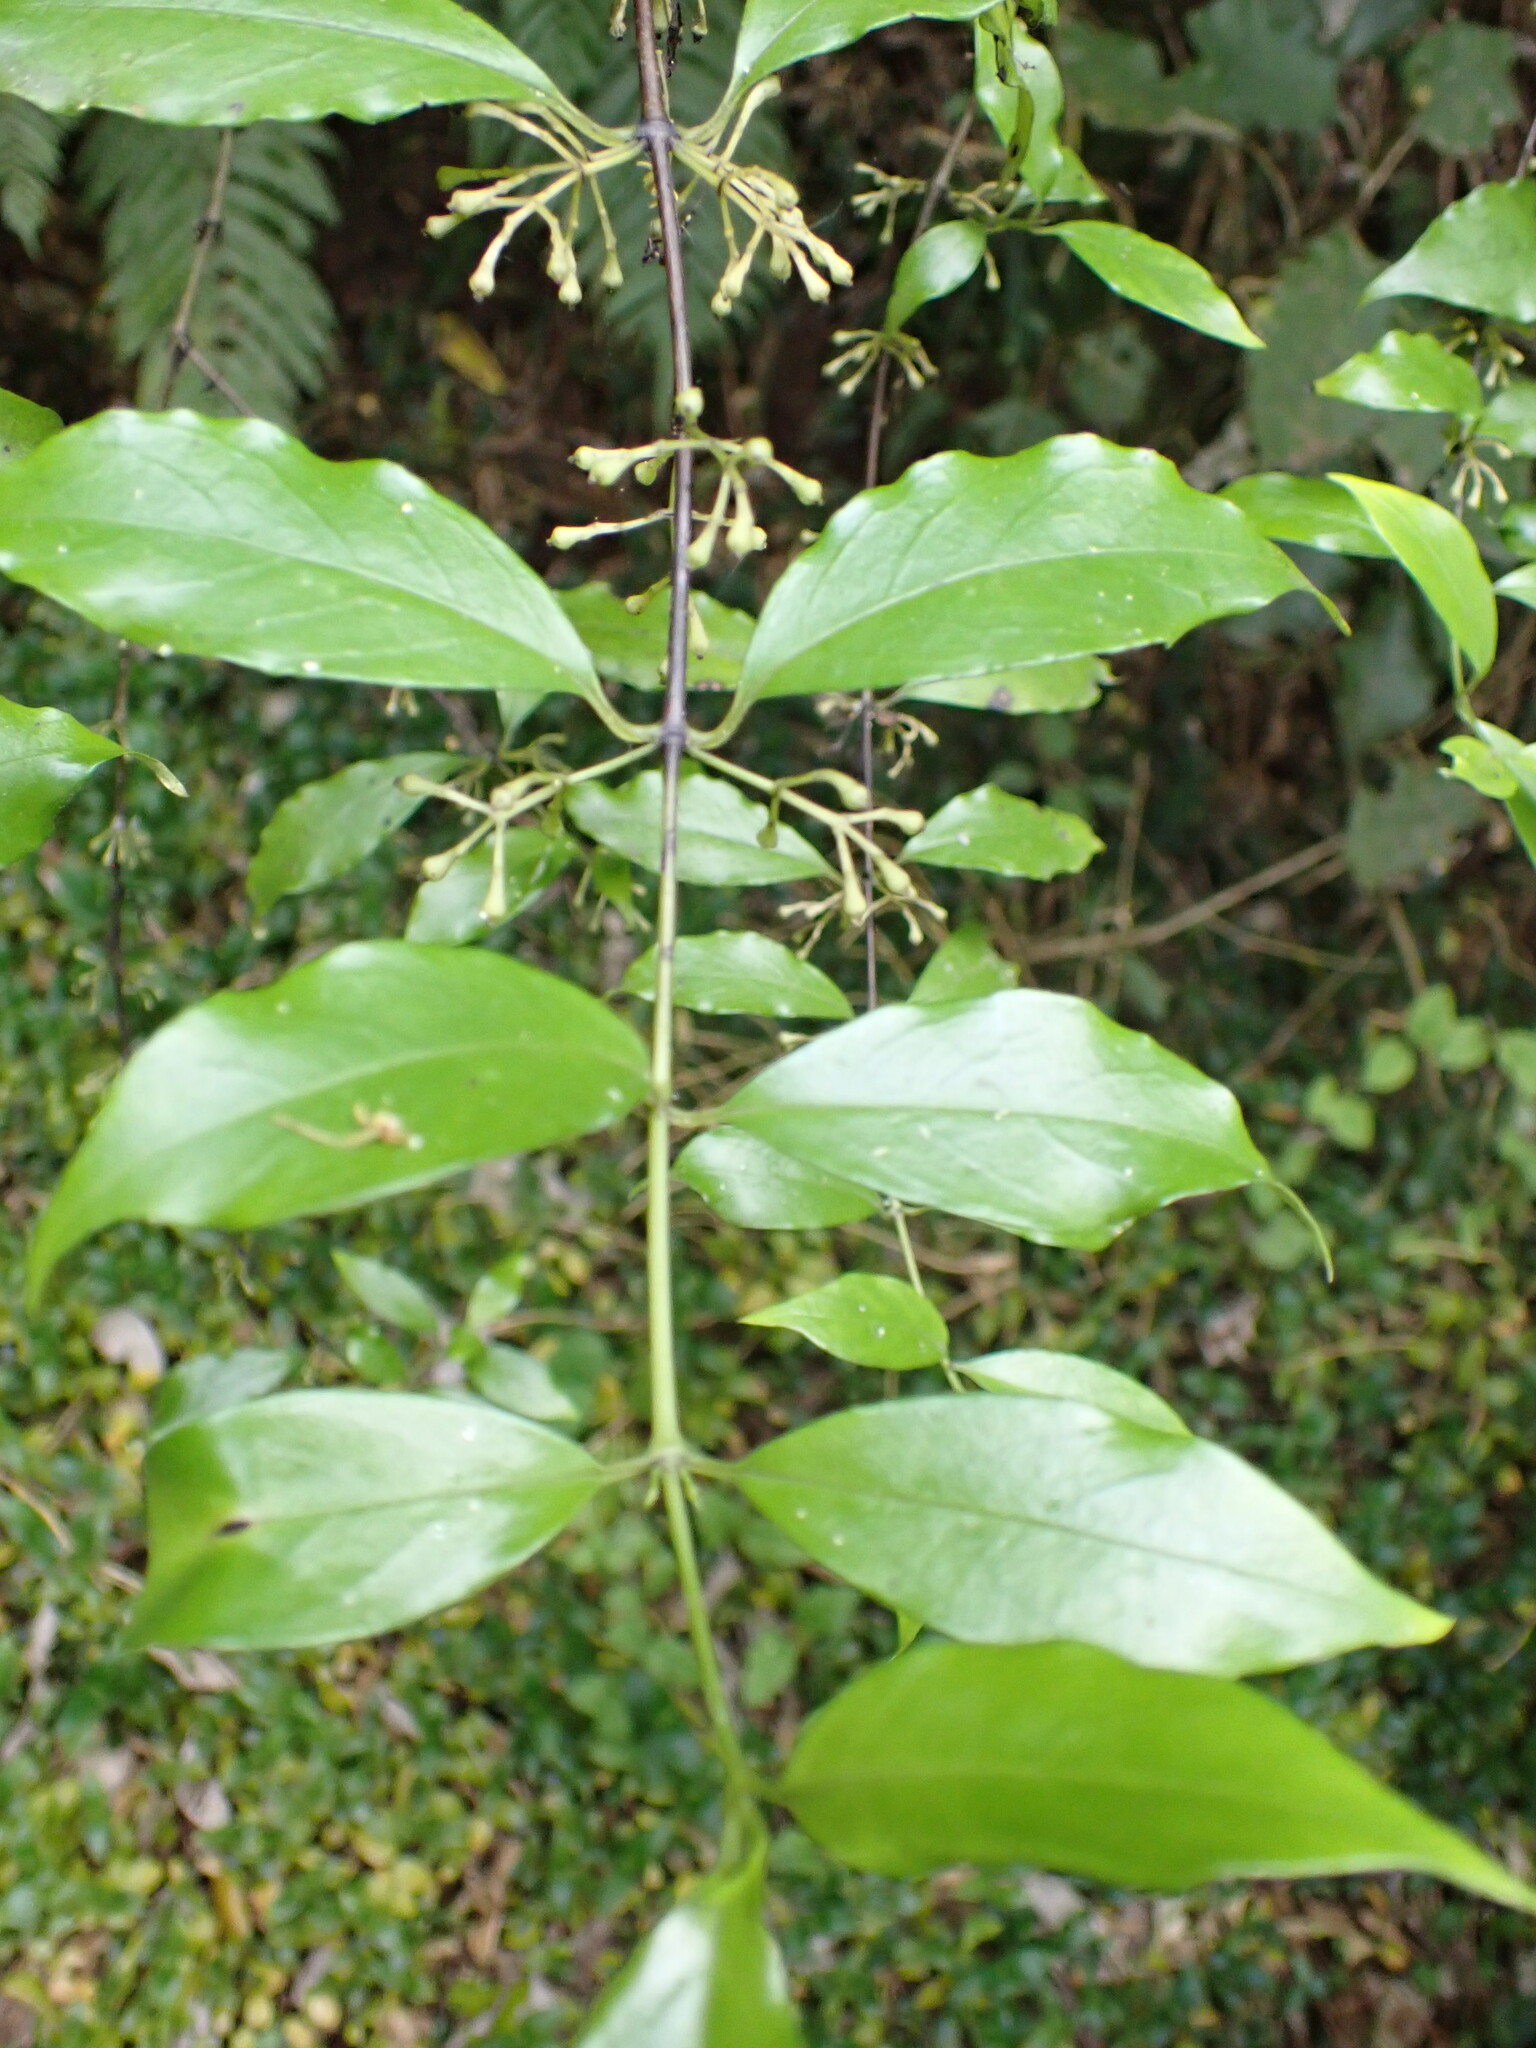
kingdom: Plantae
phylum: Tracheophyta
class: Magnoliopsida
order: Gentianales
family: Loganiaceae
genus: Geniostoma
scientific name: Geniostoma ligustrifolium
